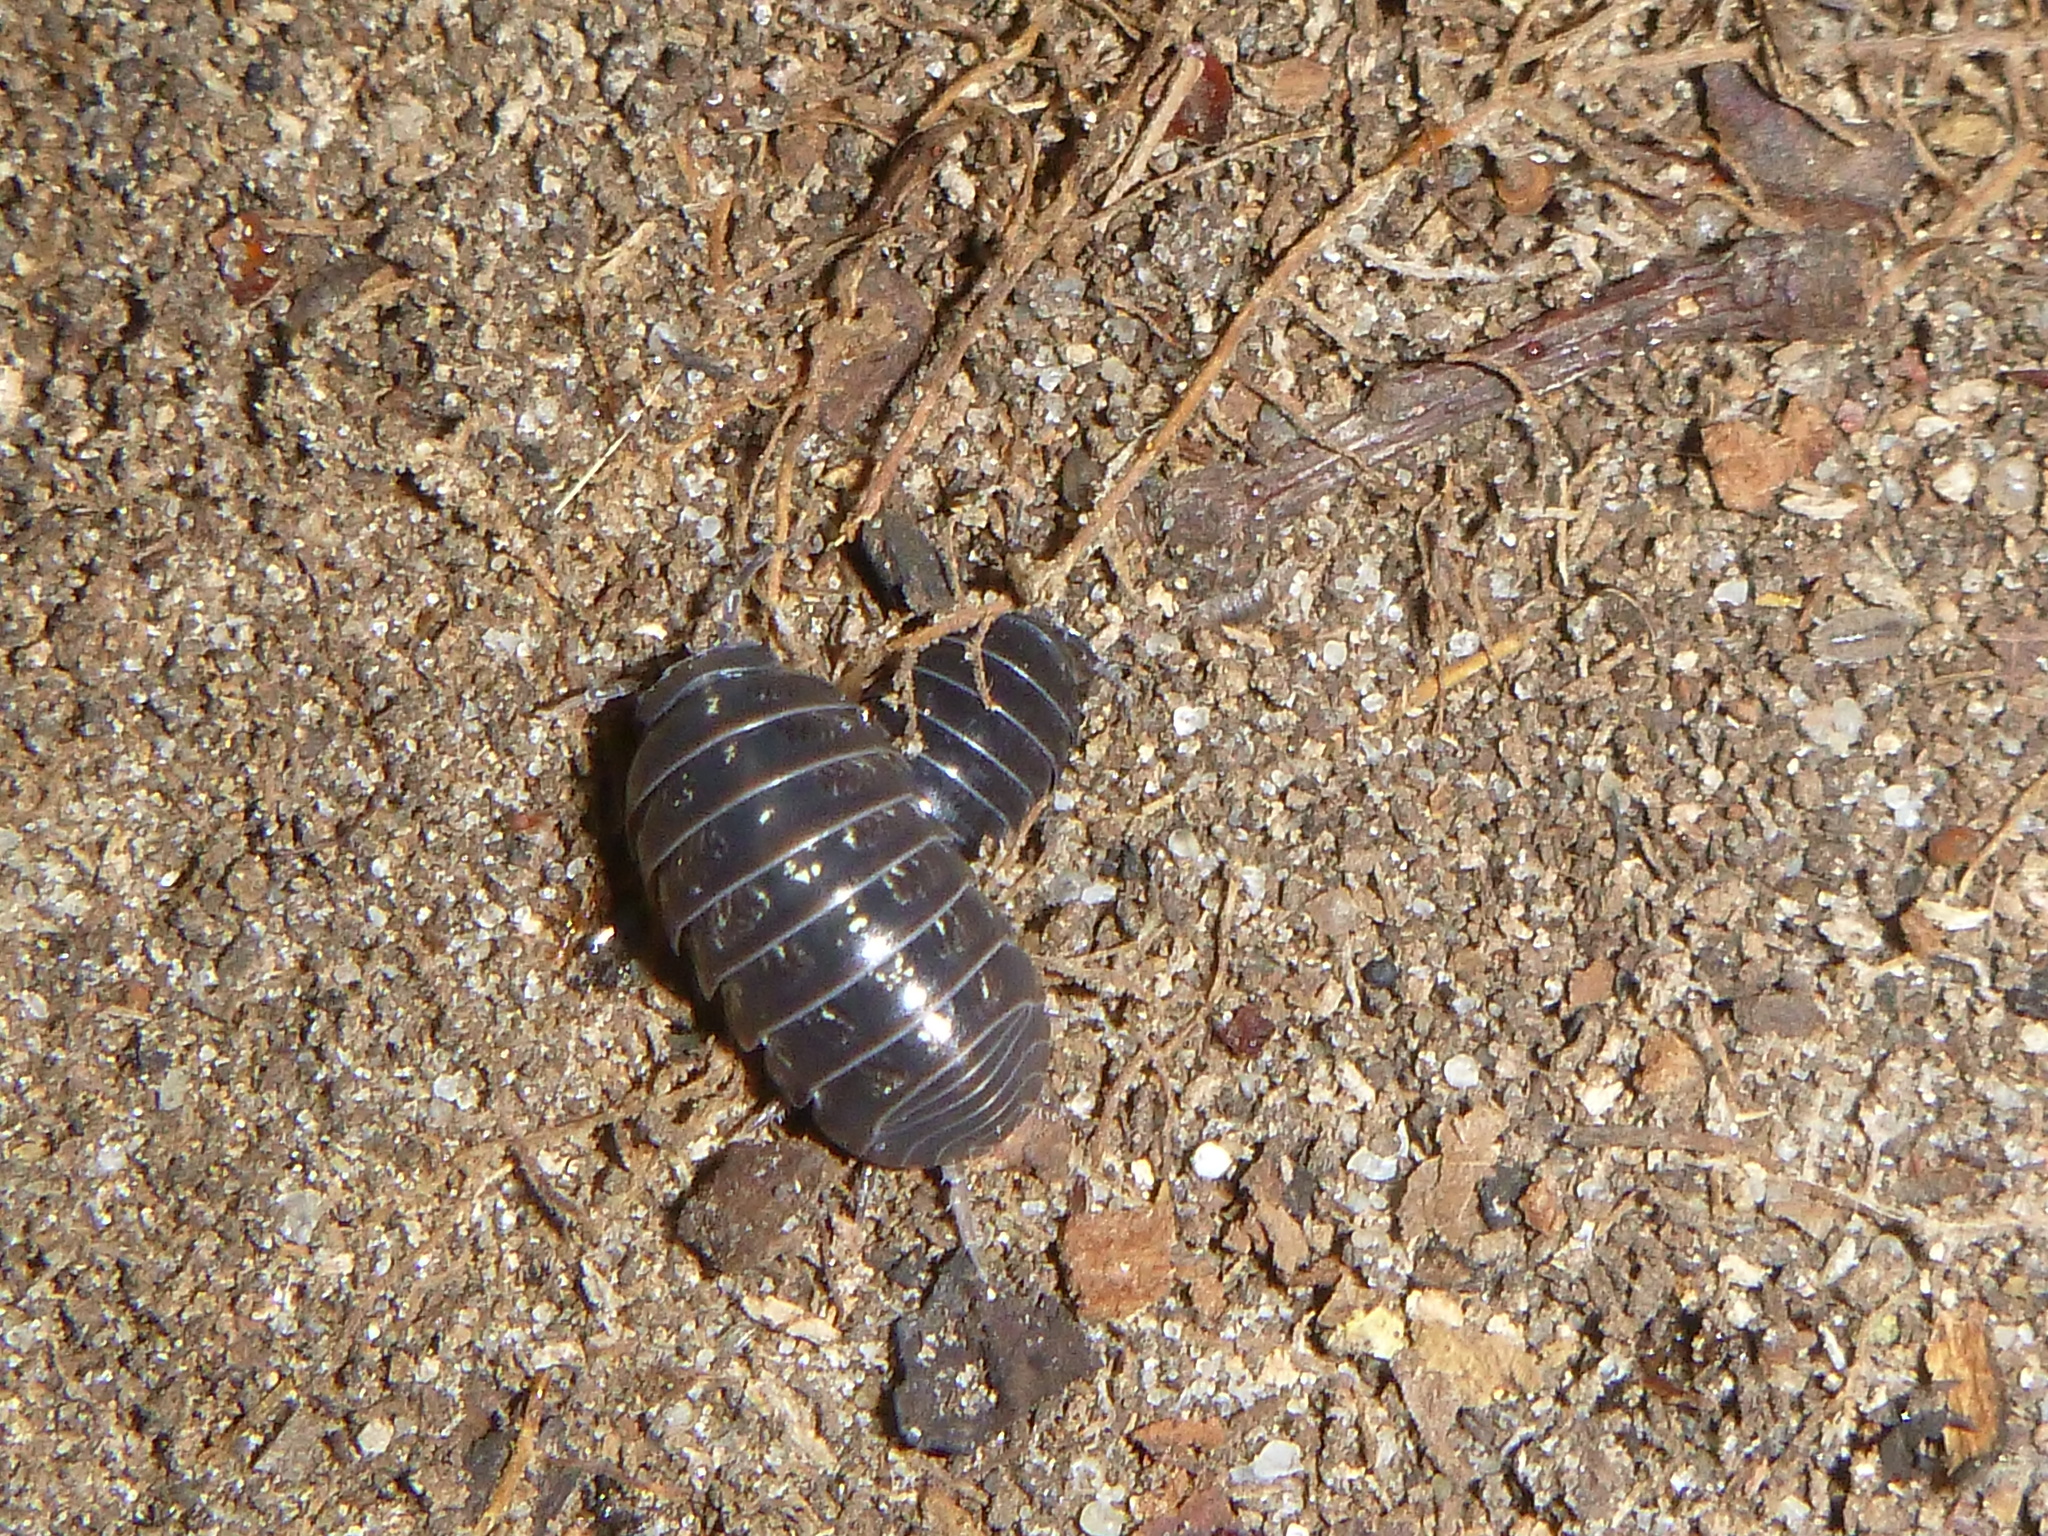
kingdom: Animalia
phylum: Arthropoda
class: Malacostraca
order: Isopoda
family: Armadillidiidae
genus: Armadillidium
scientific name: Armadillidium vulgare
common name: Common pill woodlouse
